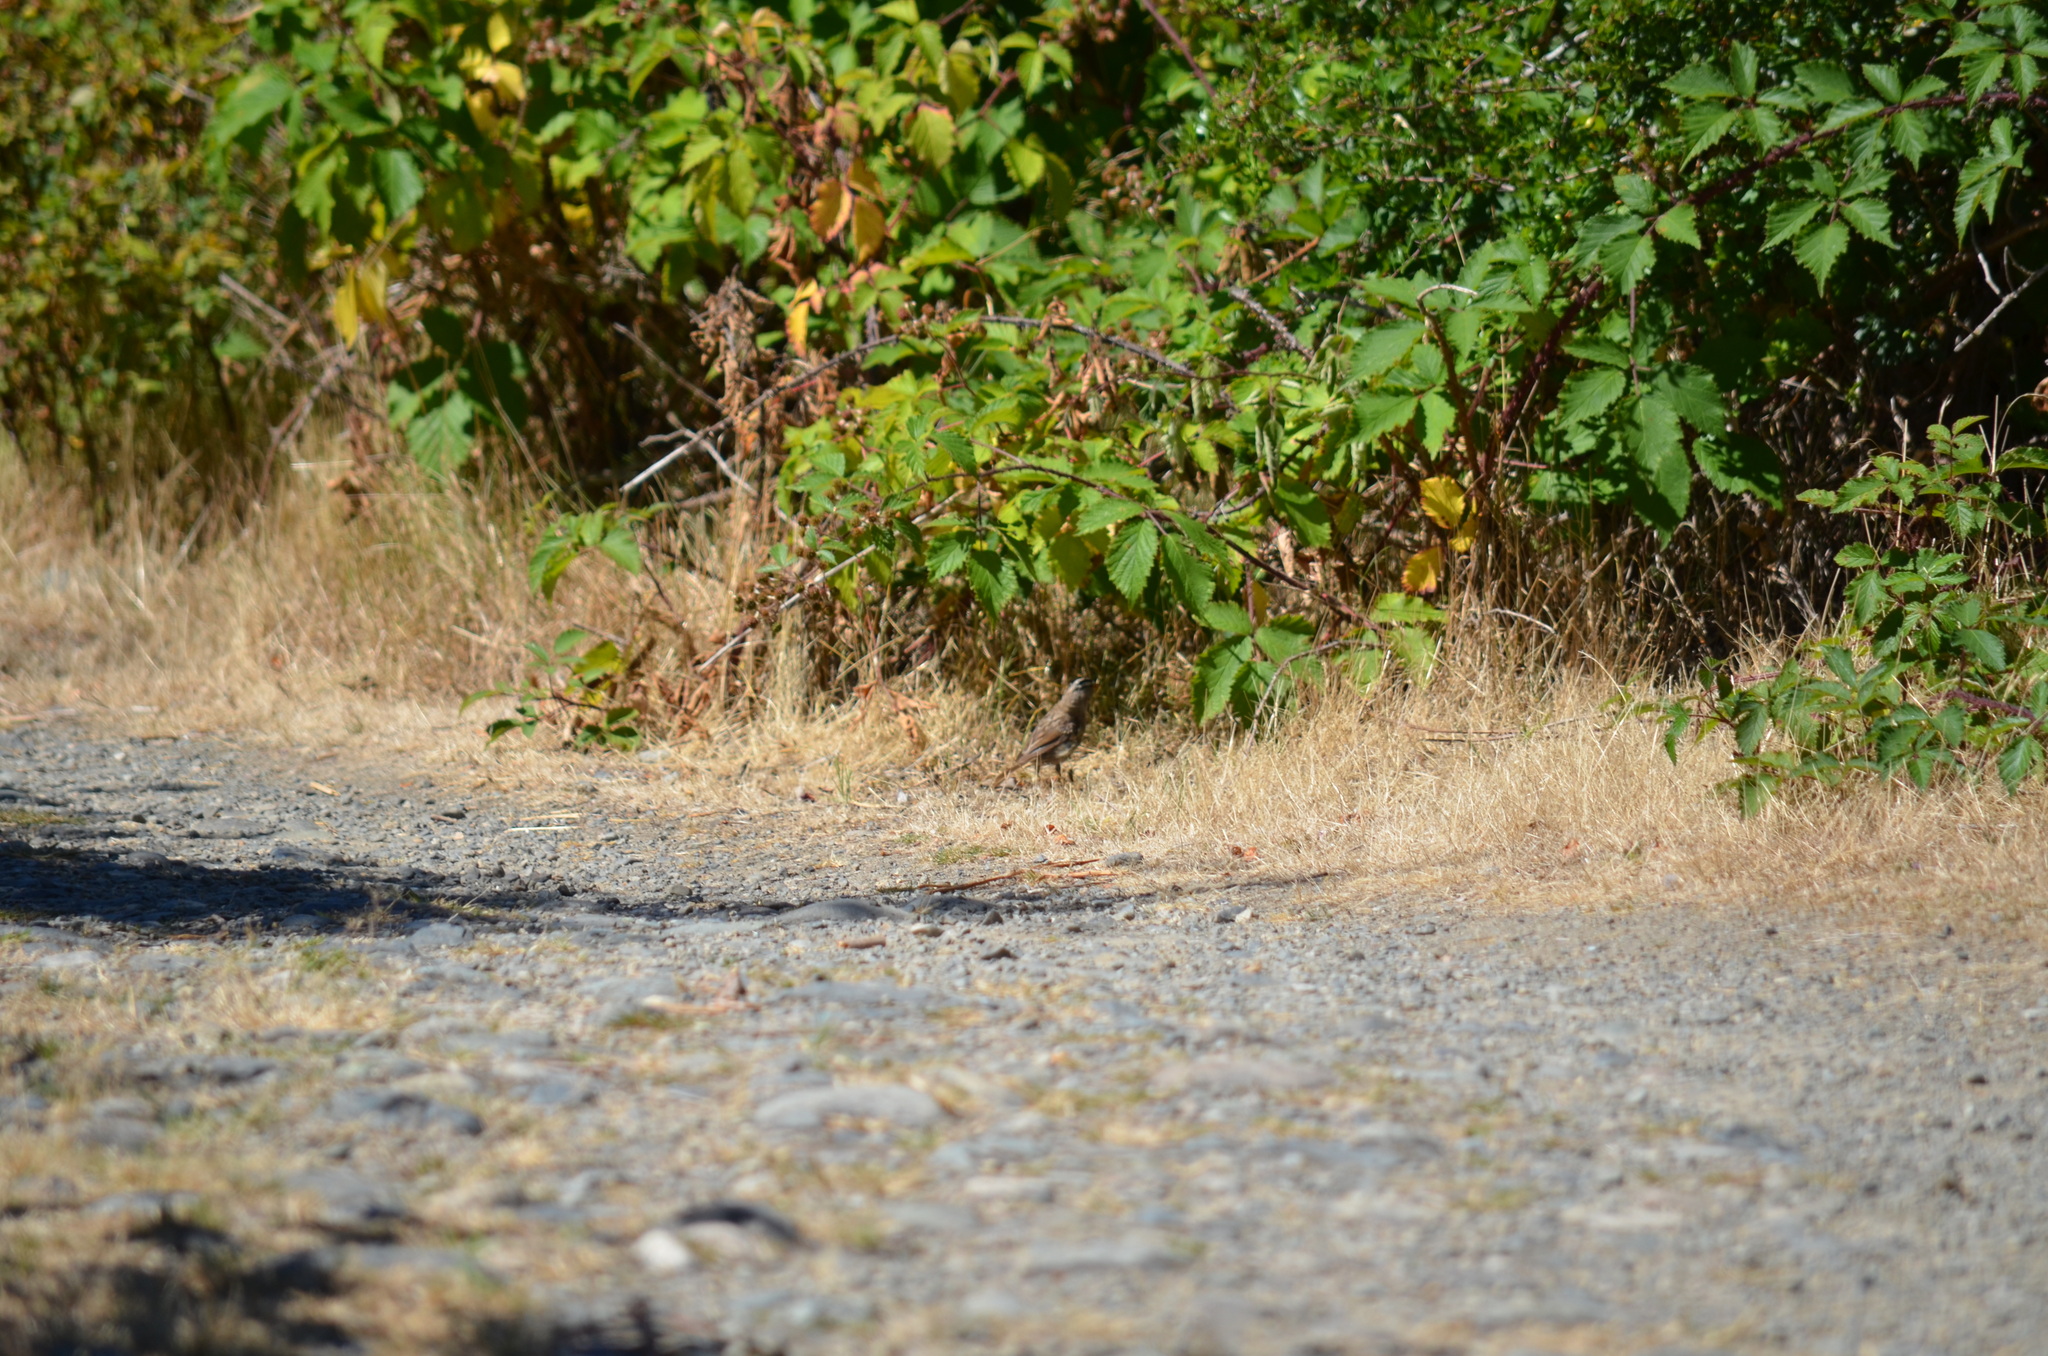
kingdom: Animalia
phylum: Chordata
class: Aves
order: Passeriformes
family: Passerellidae
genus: Zonotrichia
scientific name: Zonotrichia leucophrys
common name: White-crowned sparrow
